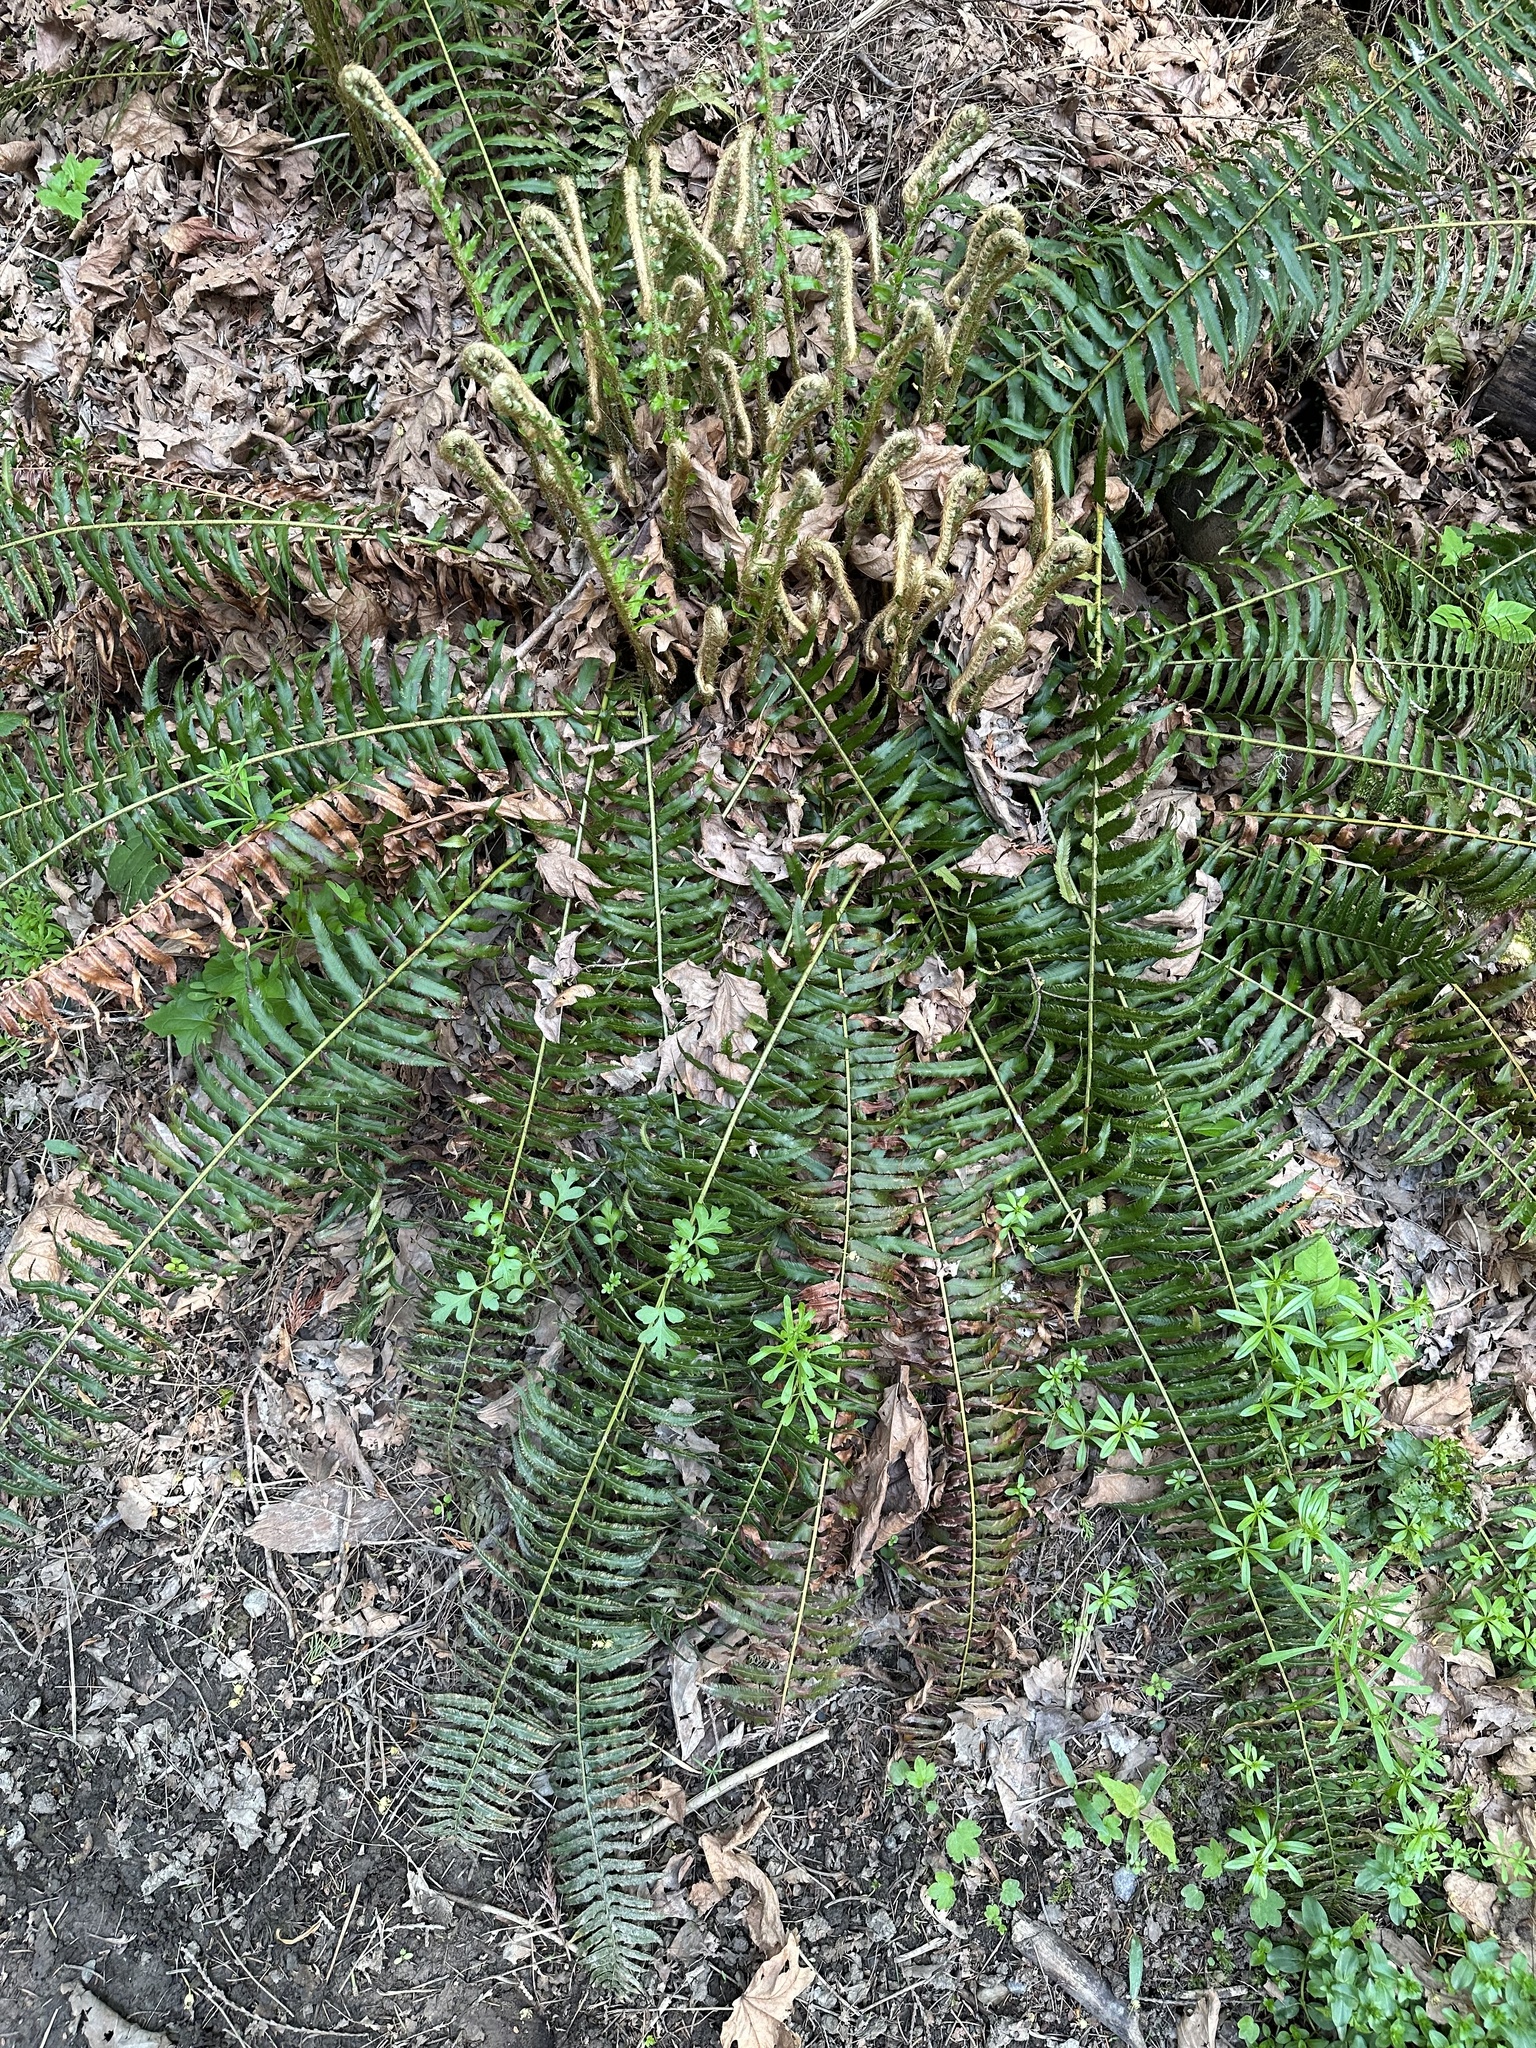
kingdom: Plantae
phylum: Tracheophyta
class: Polypodiopsida
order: Polypodiales
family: Dryopteridaceae
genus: Polystichum
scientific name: Polystichum munitum
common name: Western sword-fern
